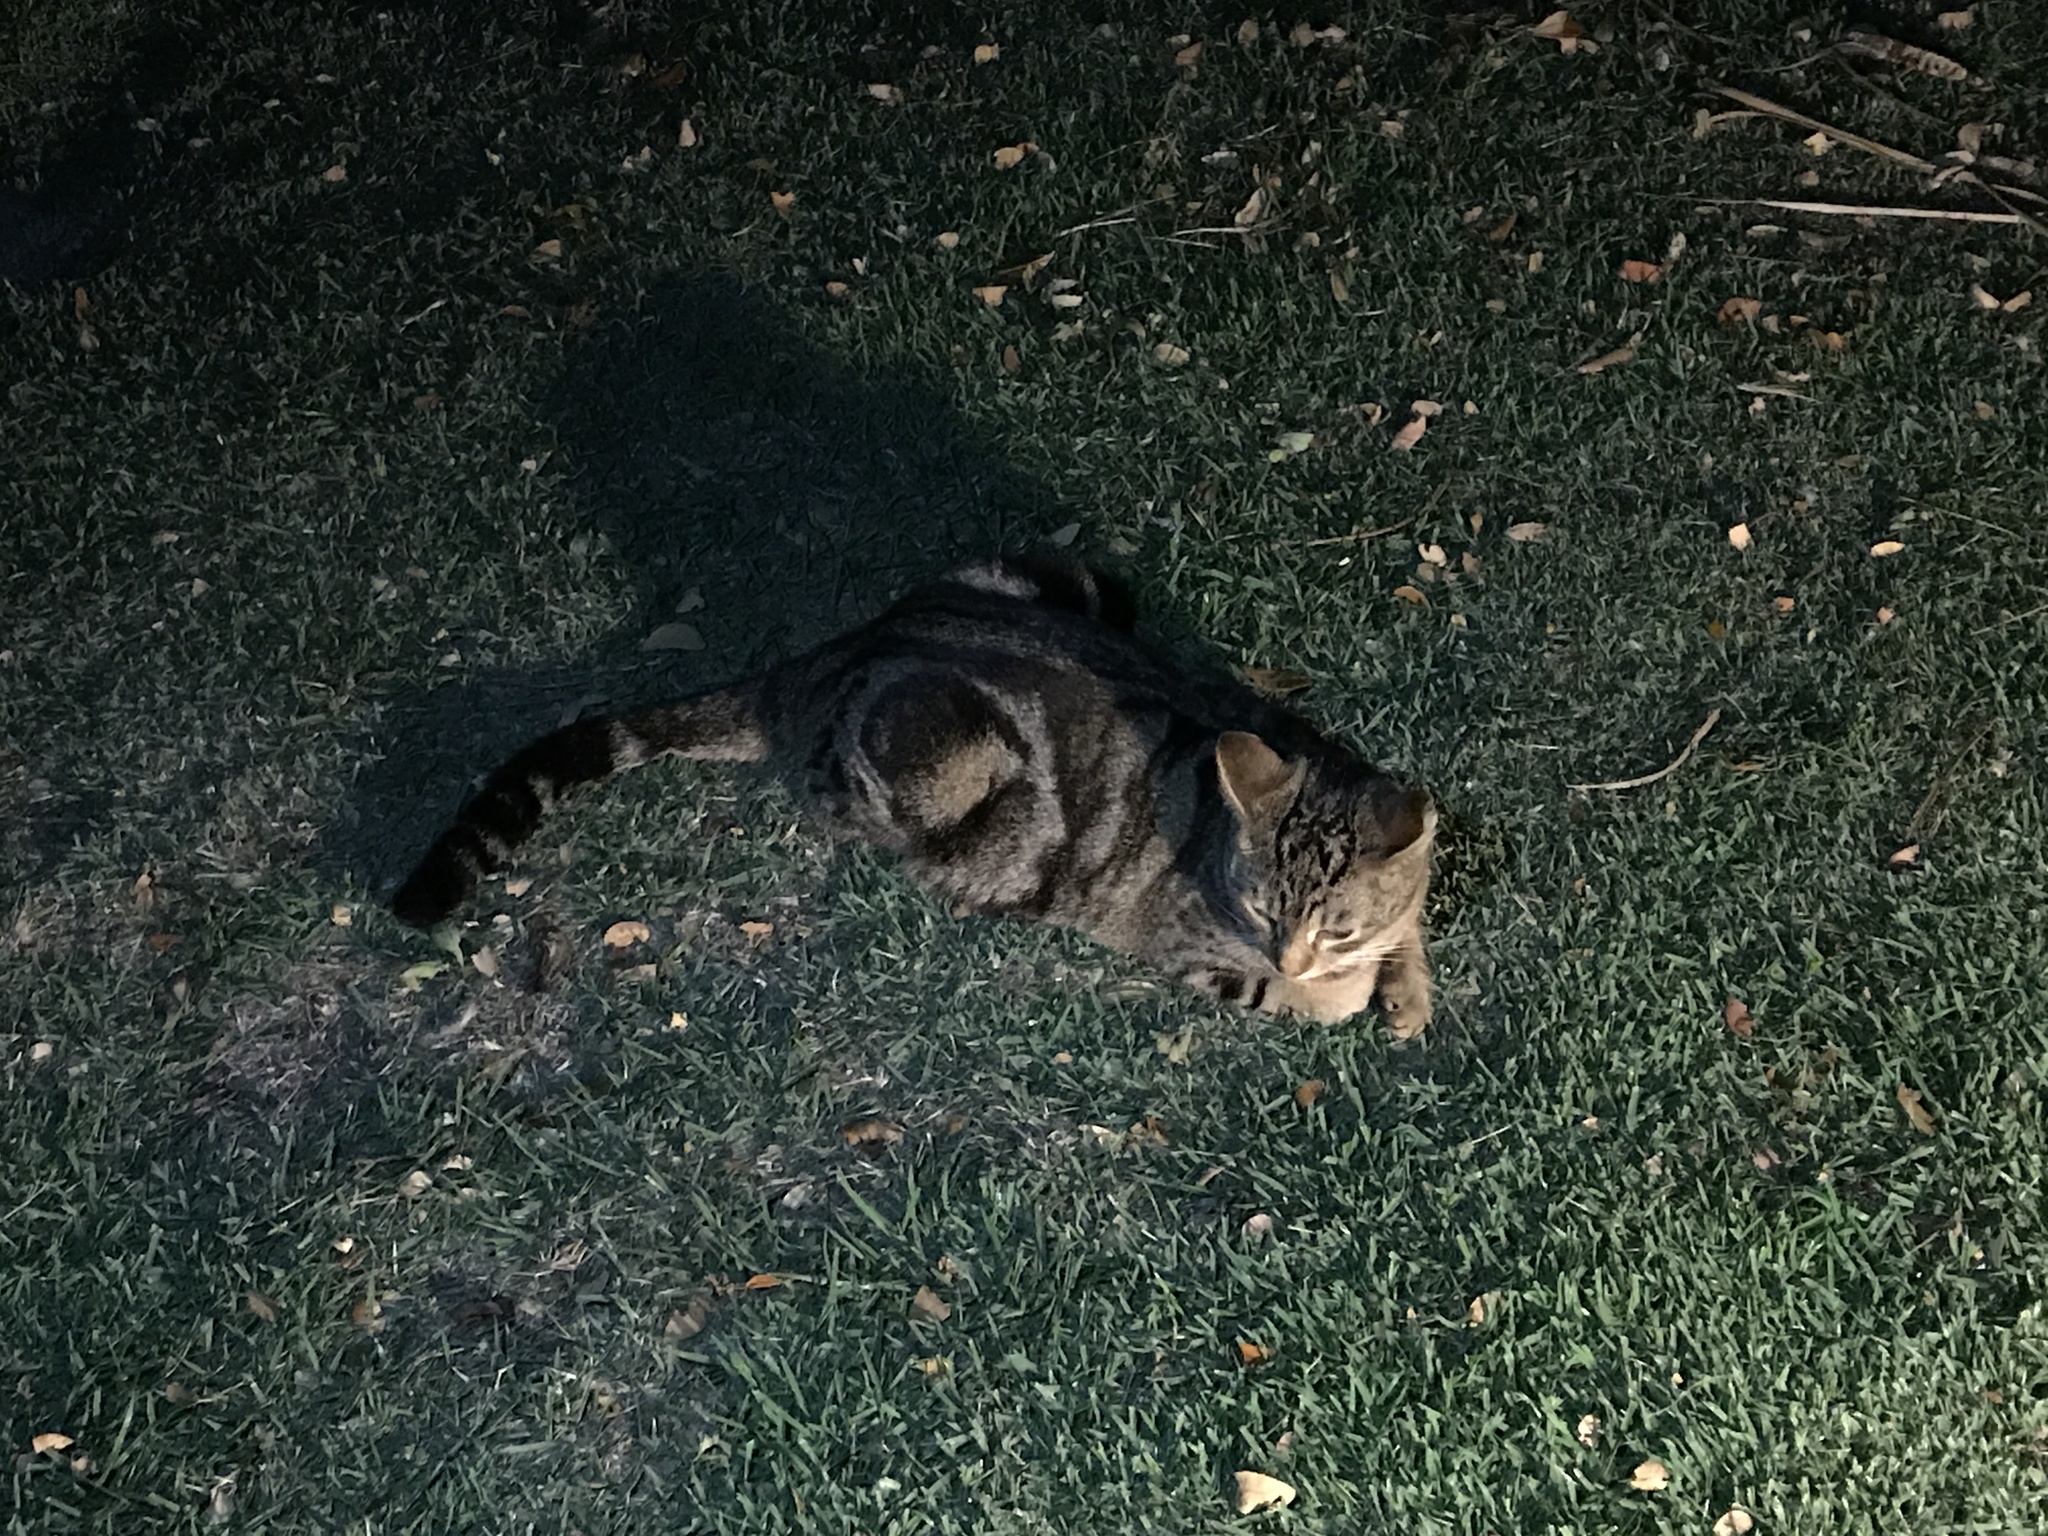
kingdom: Animalia
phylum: Chordata
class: Mammalia
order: Carnivora
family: Felidae
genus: Felis
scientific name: Felis catus
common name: Domestic cat
